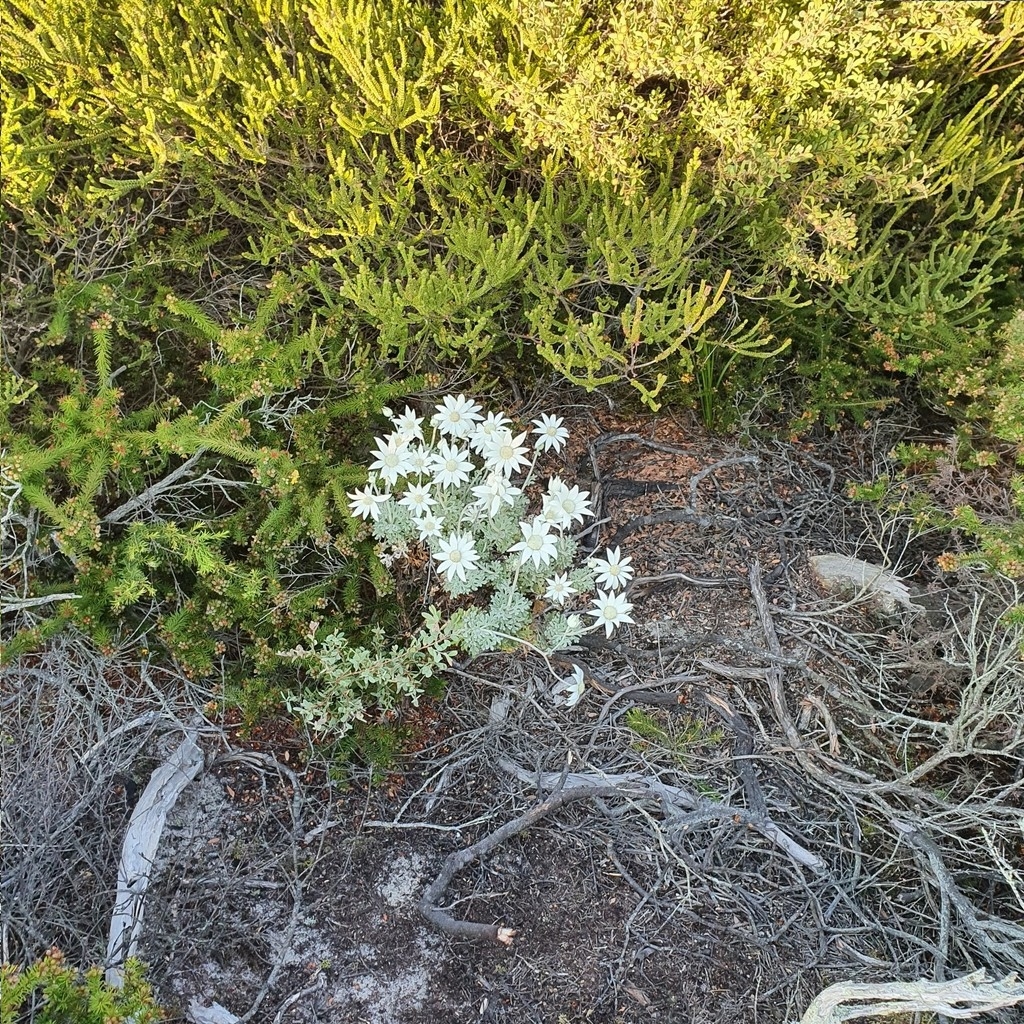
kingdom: Plantae
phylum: Tracheophyta
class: Magnoliopsida
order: Apiales
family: Apiaceae
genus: Actinotus
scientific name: Actinotus helianthi
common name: Flannel-flower
